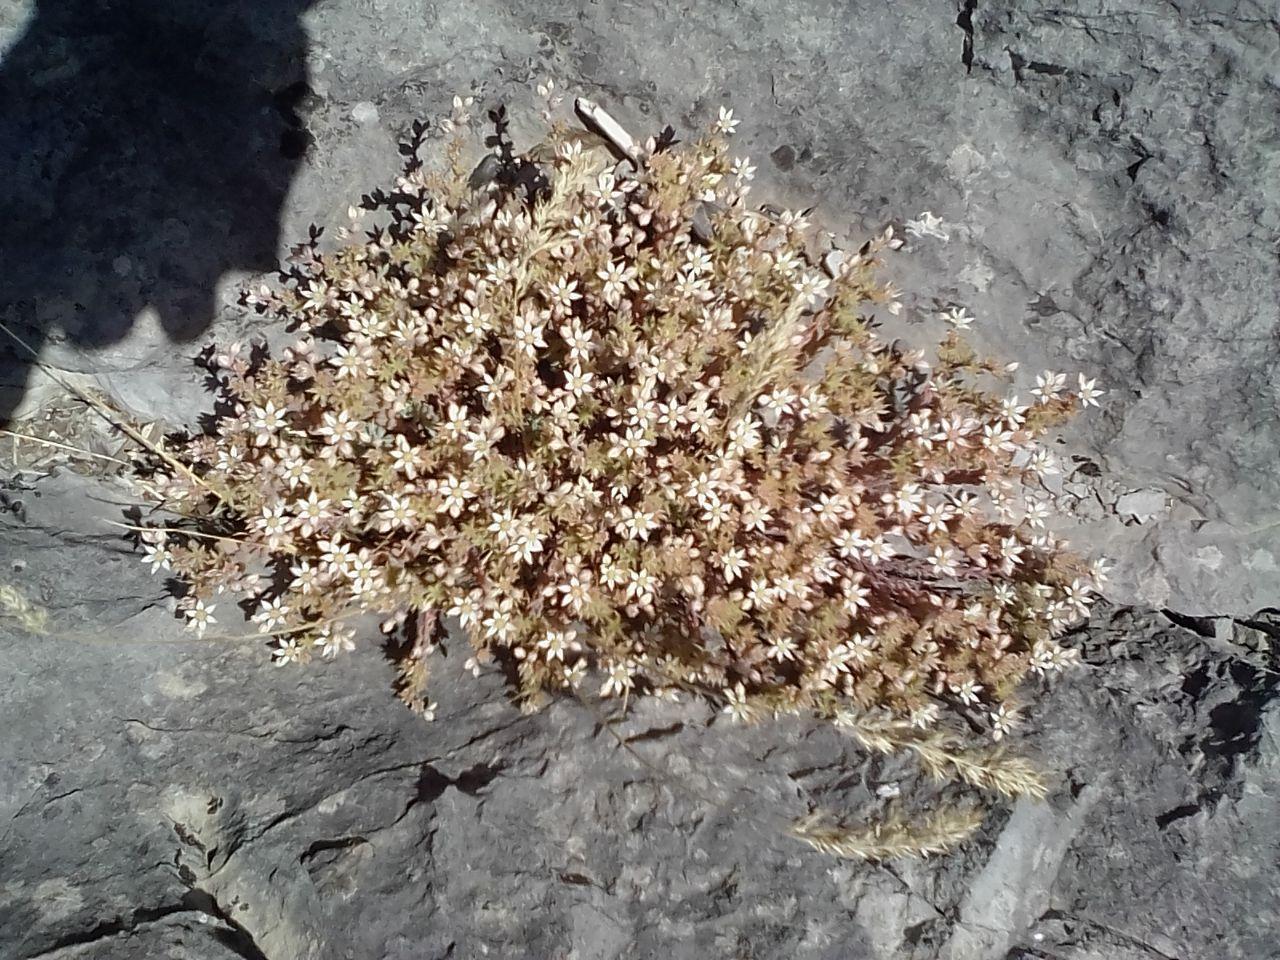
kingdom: Plantae
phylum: Tracheophyta
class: Magnoliopsida
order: Saxifragales
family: Crassulaceae
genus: Sedum
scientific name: Sedum hispanicum
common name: Spanish stonecrop
